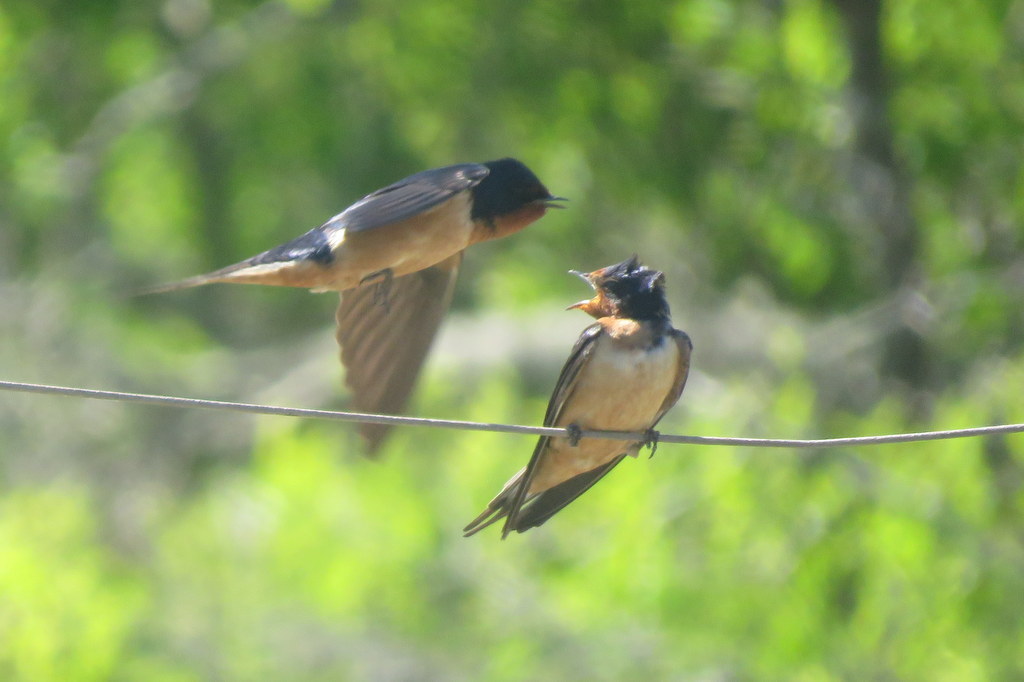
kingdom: Animalia
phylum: Chordata
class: Aves
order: Passeriformes
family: Hirundinidae
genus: Hirundo
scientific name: Hirundo rustica
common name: Barn swallow
